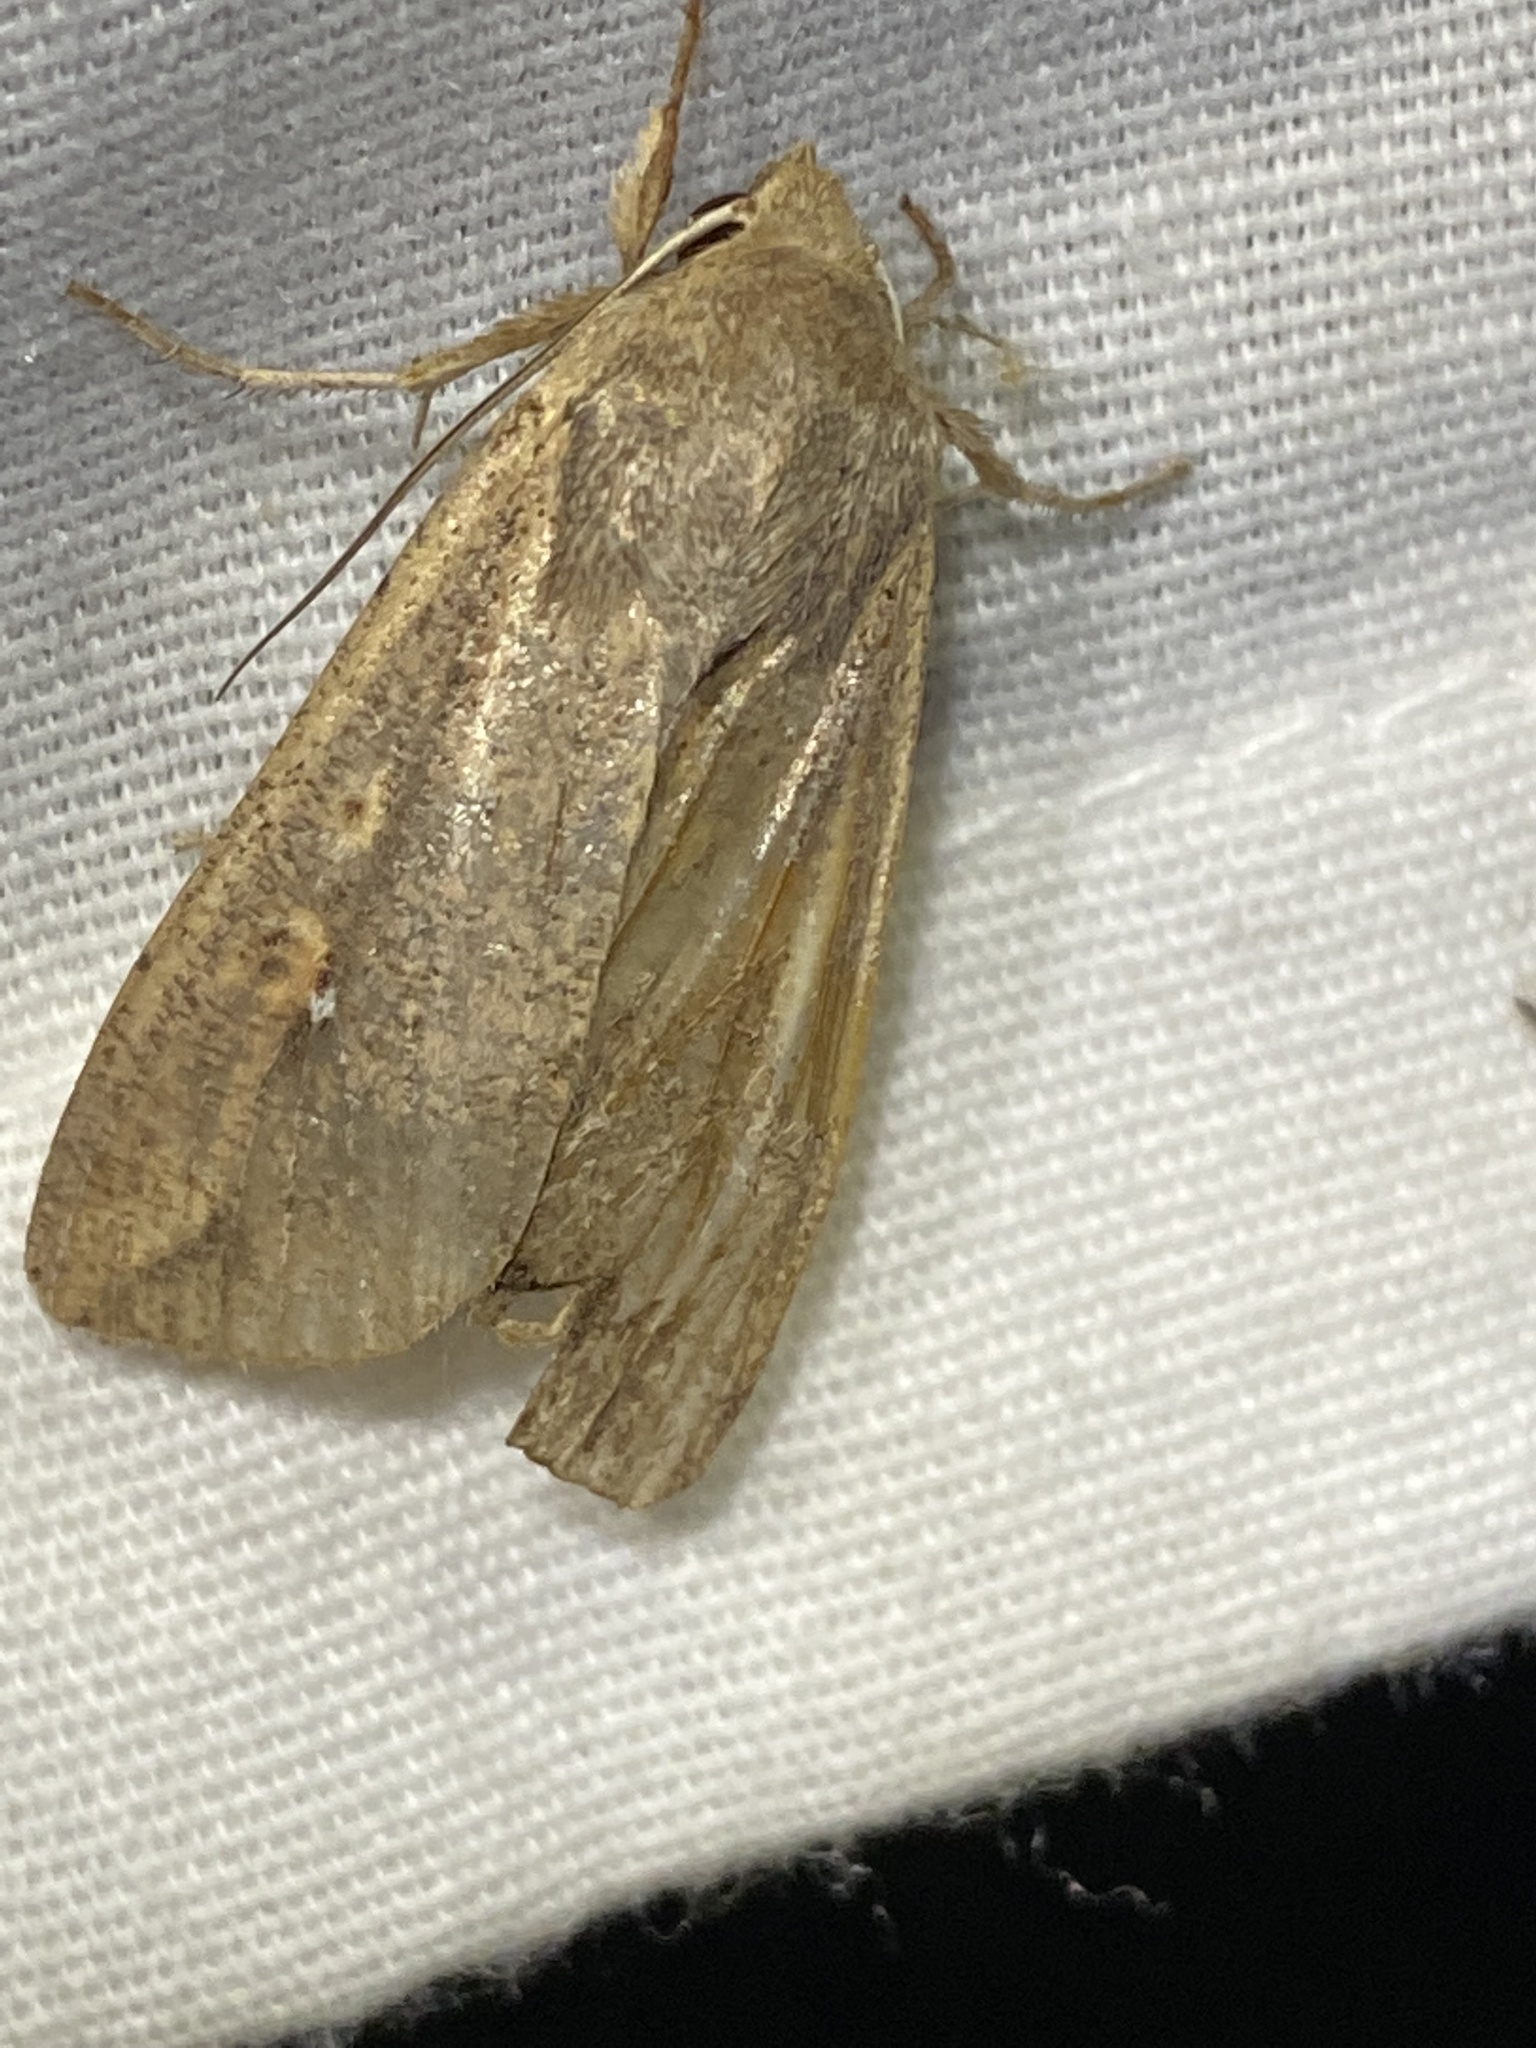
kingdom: Animalia
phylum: Arthropoda
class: Insecta
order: Lepidoptera
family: Noctuidae
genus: Mythimna
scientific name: Mythimna unipuncta
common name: White-speck
